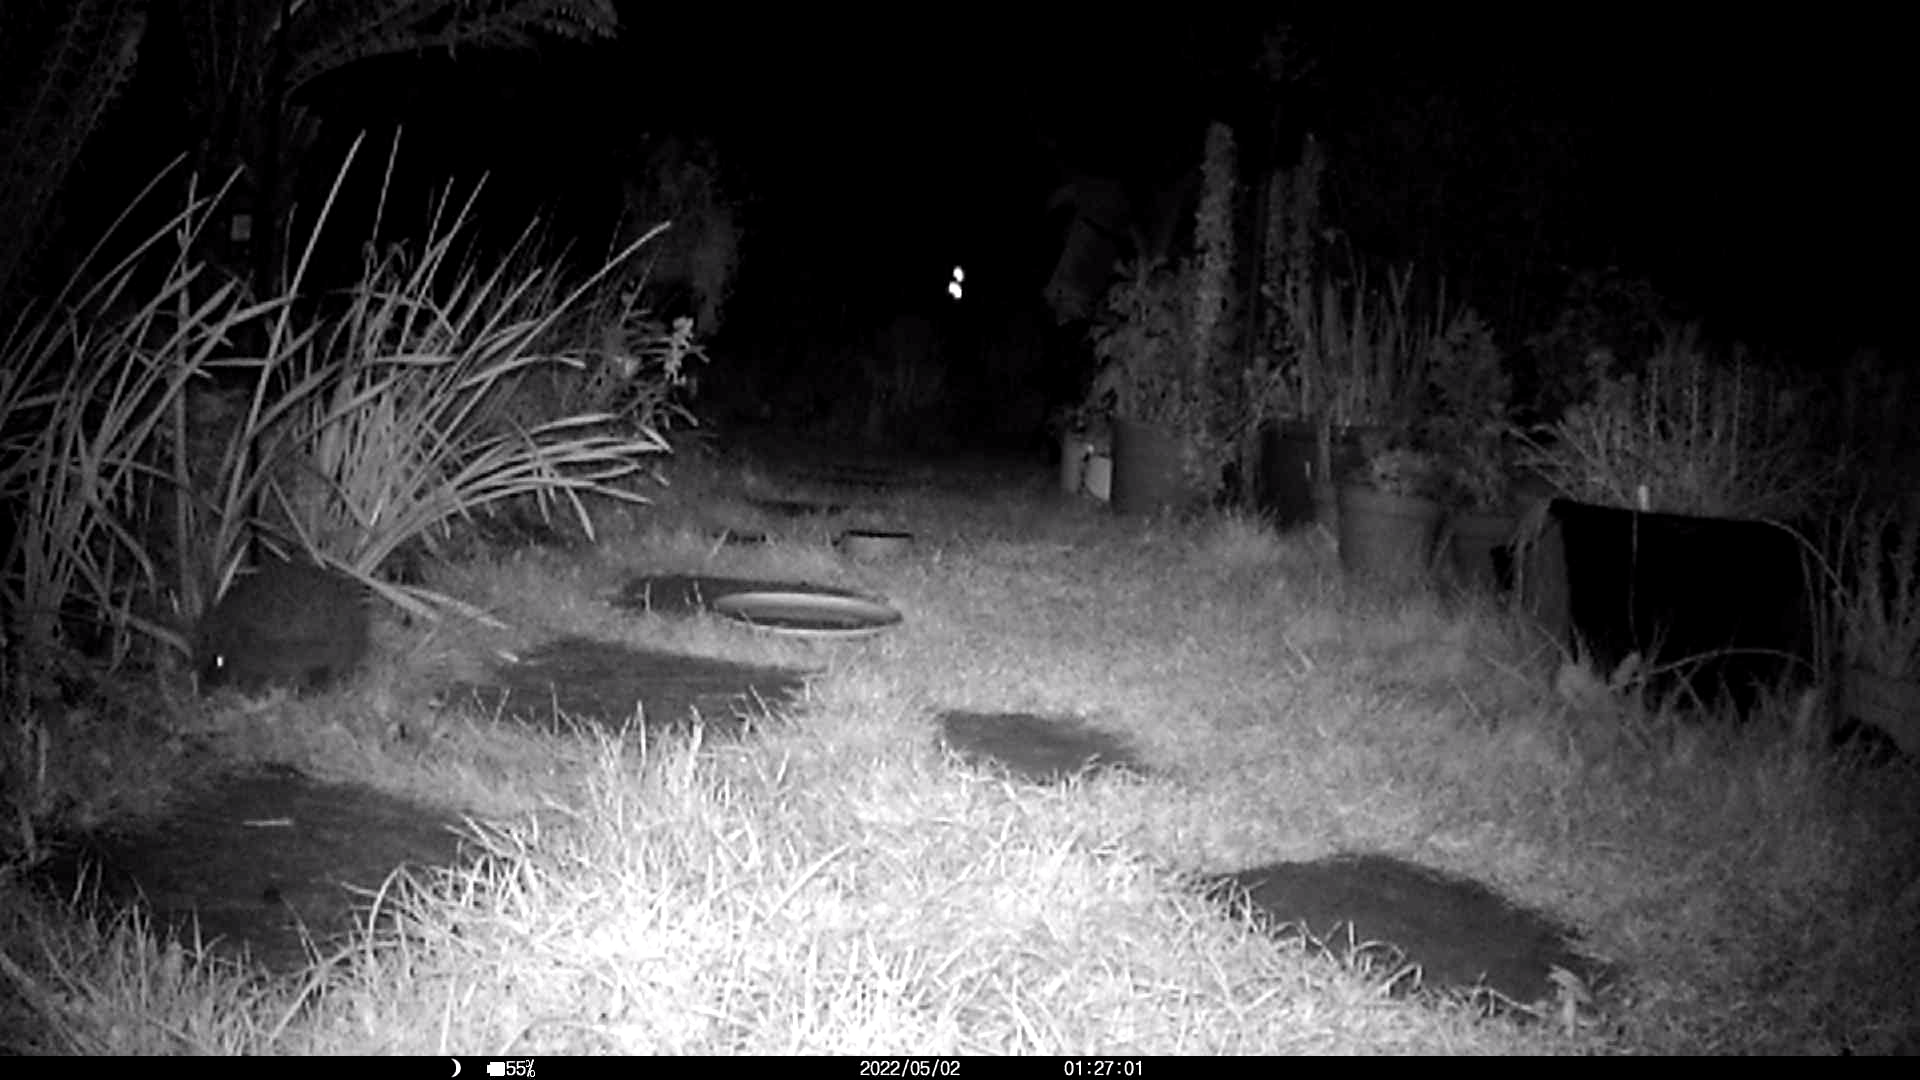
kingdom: Animalia
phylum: Chordata
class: Mammalia
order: Erinaceomorpha
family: Erinaceidae
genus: Erinaceus
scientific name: Erinaceus europaeus
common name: West european hedgehog
